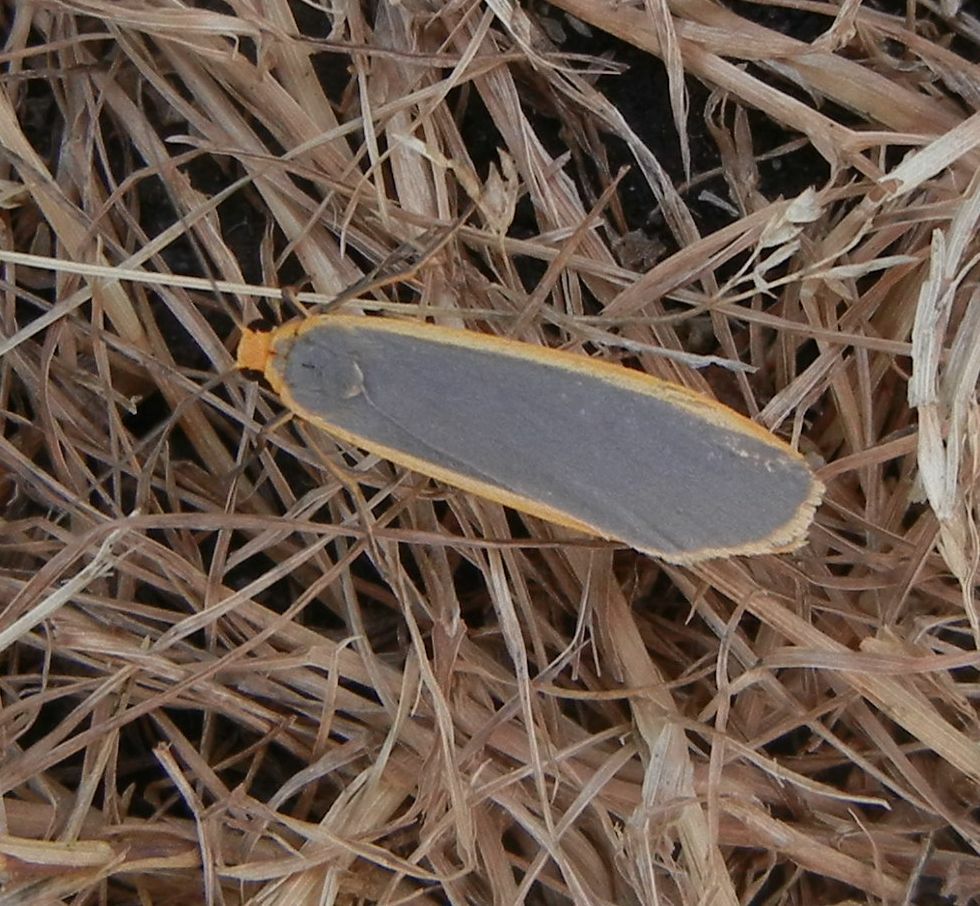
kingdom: Animalia
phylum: Arthropoda
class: Insecta
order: Lepidoptera
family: Erebidae
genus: Nyea
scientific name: Nyea lurideola
